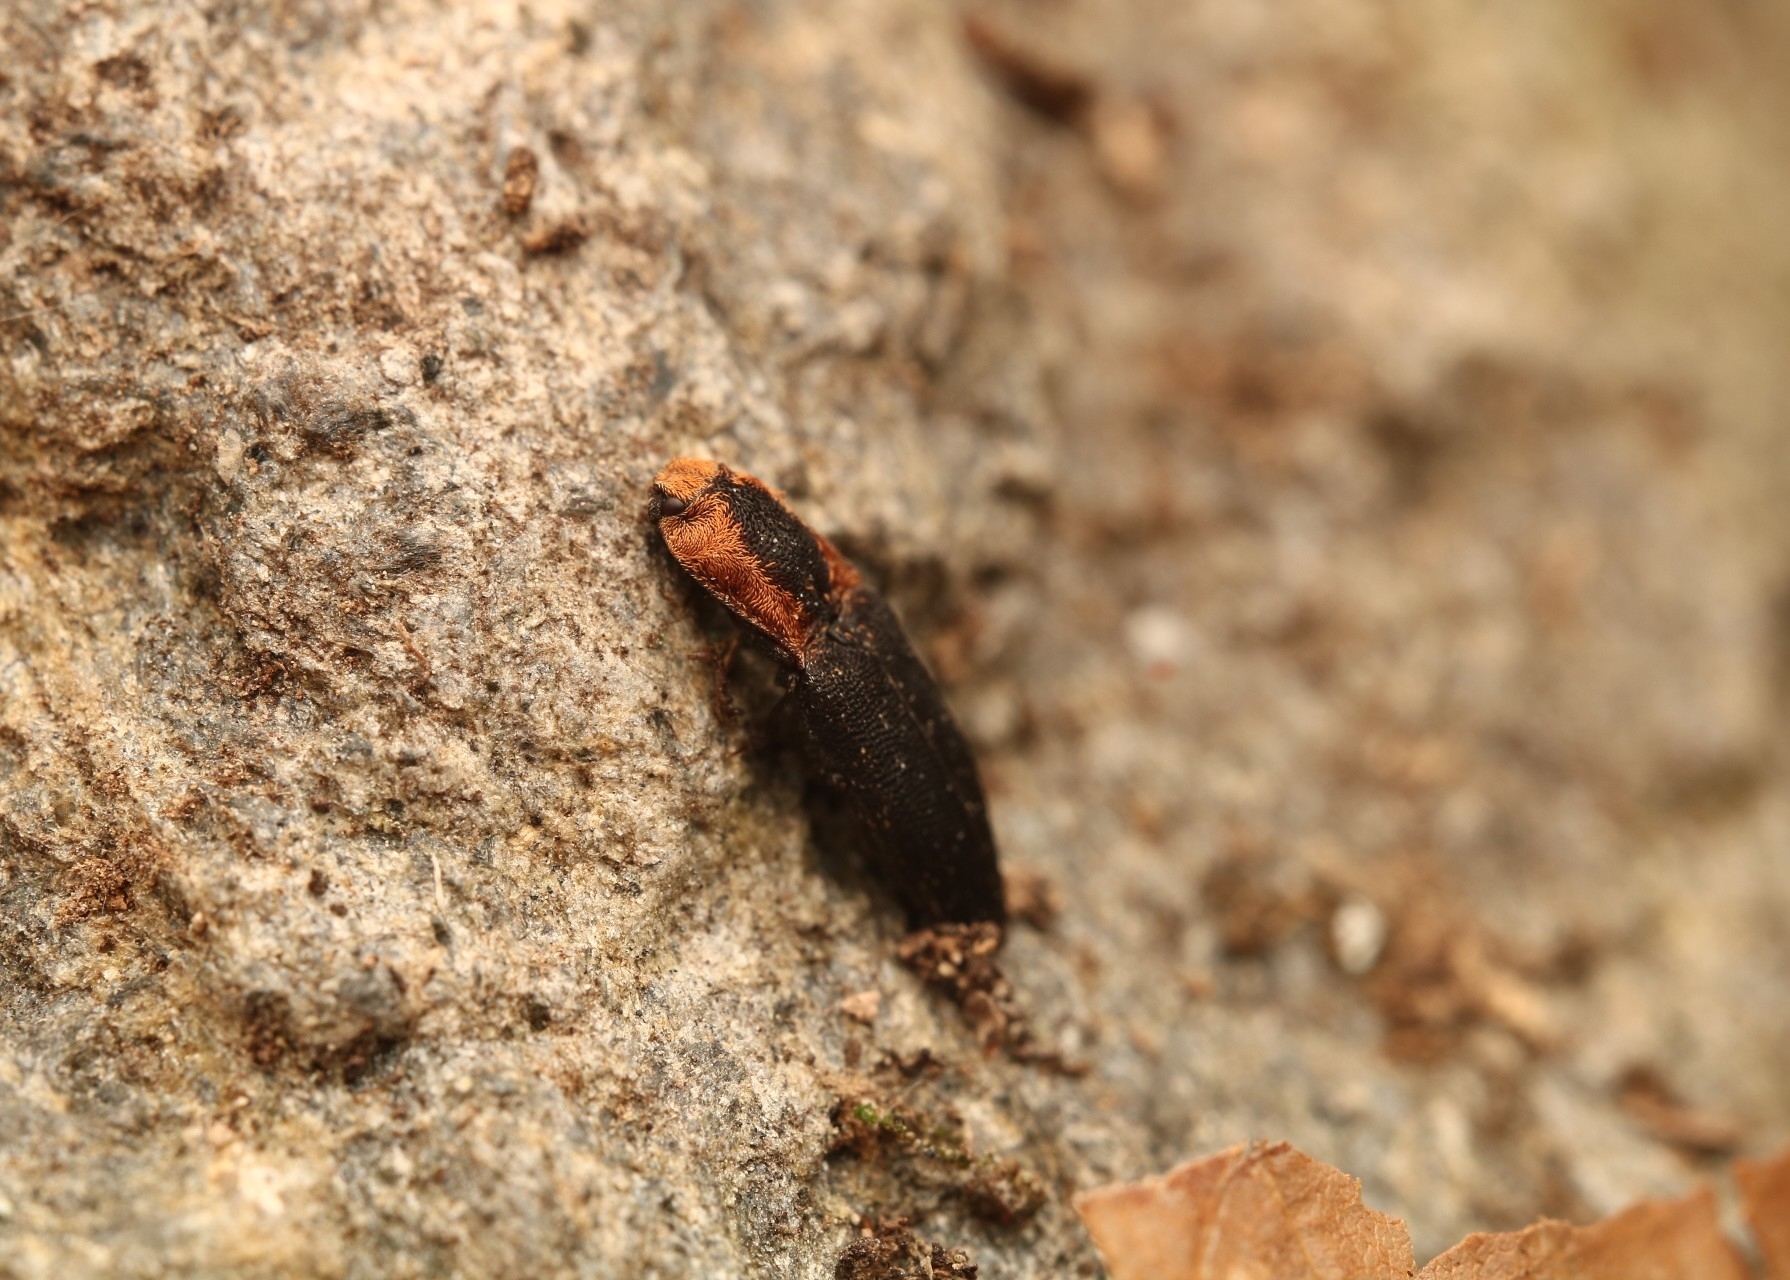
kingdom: Animalia
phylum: Arthropoda
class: Insecta
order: Coleoptera
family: Elateridae
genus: Lacon
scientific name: Lacon discoideus
